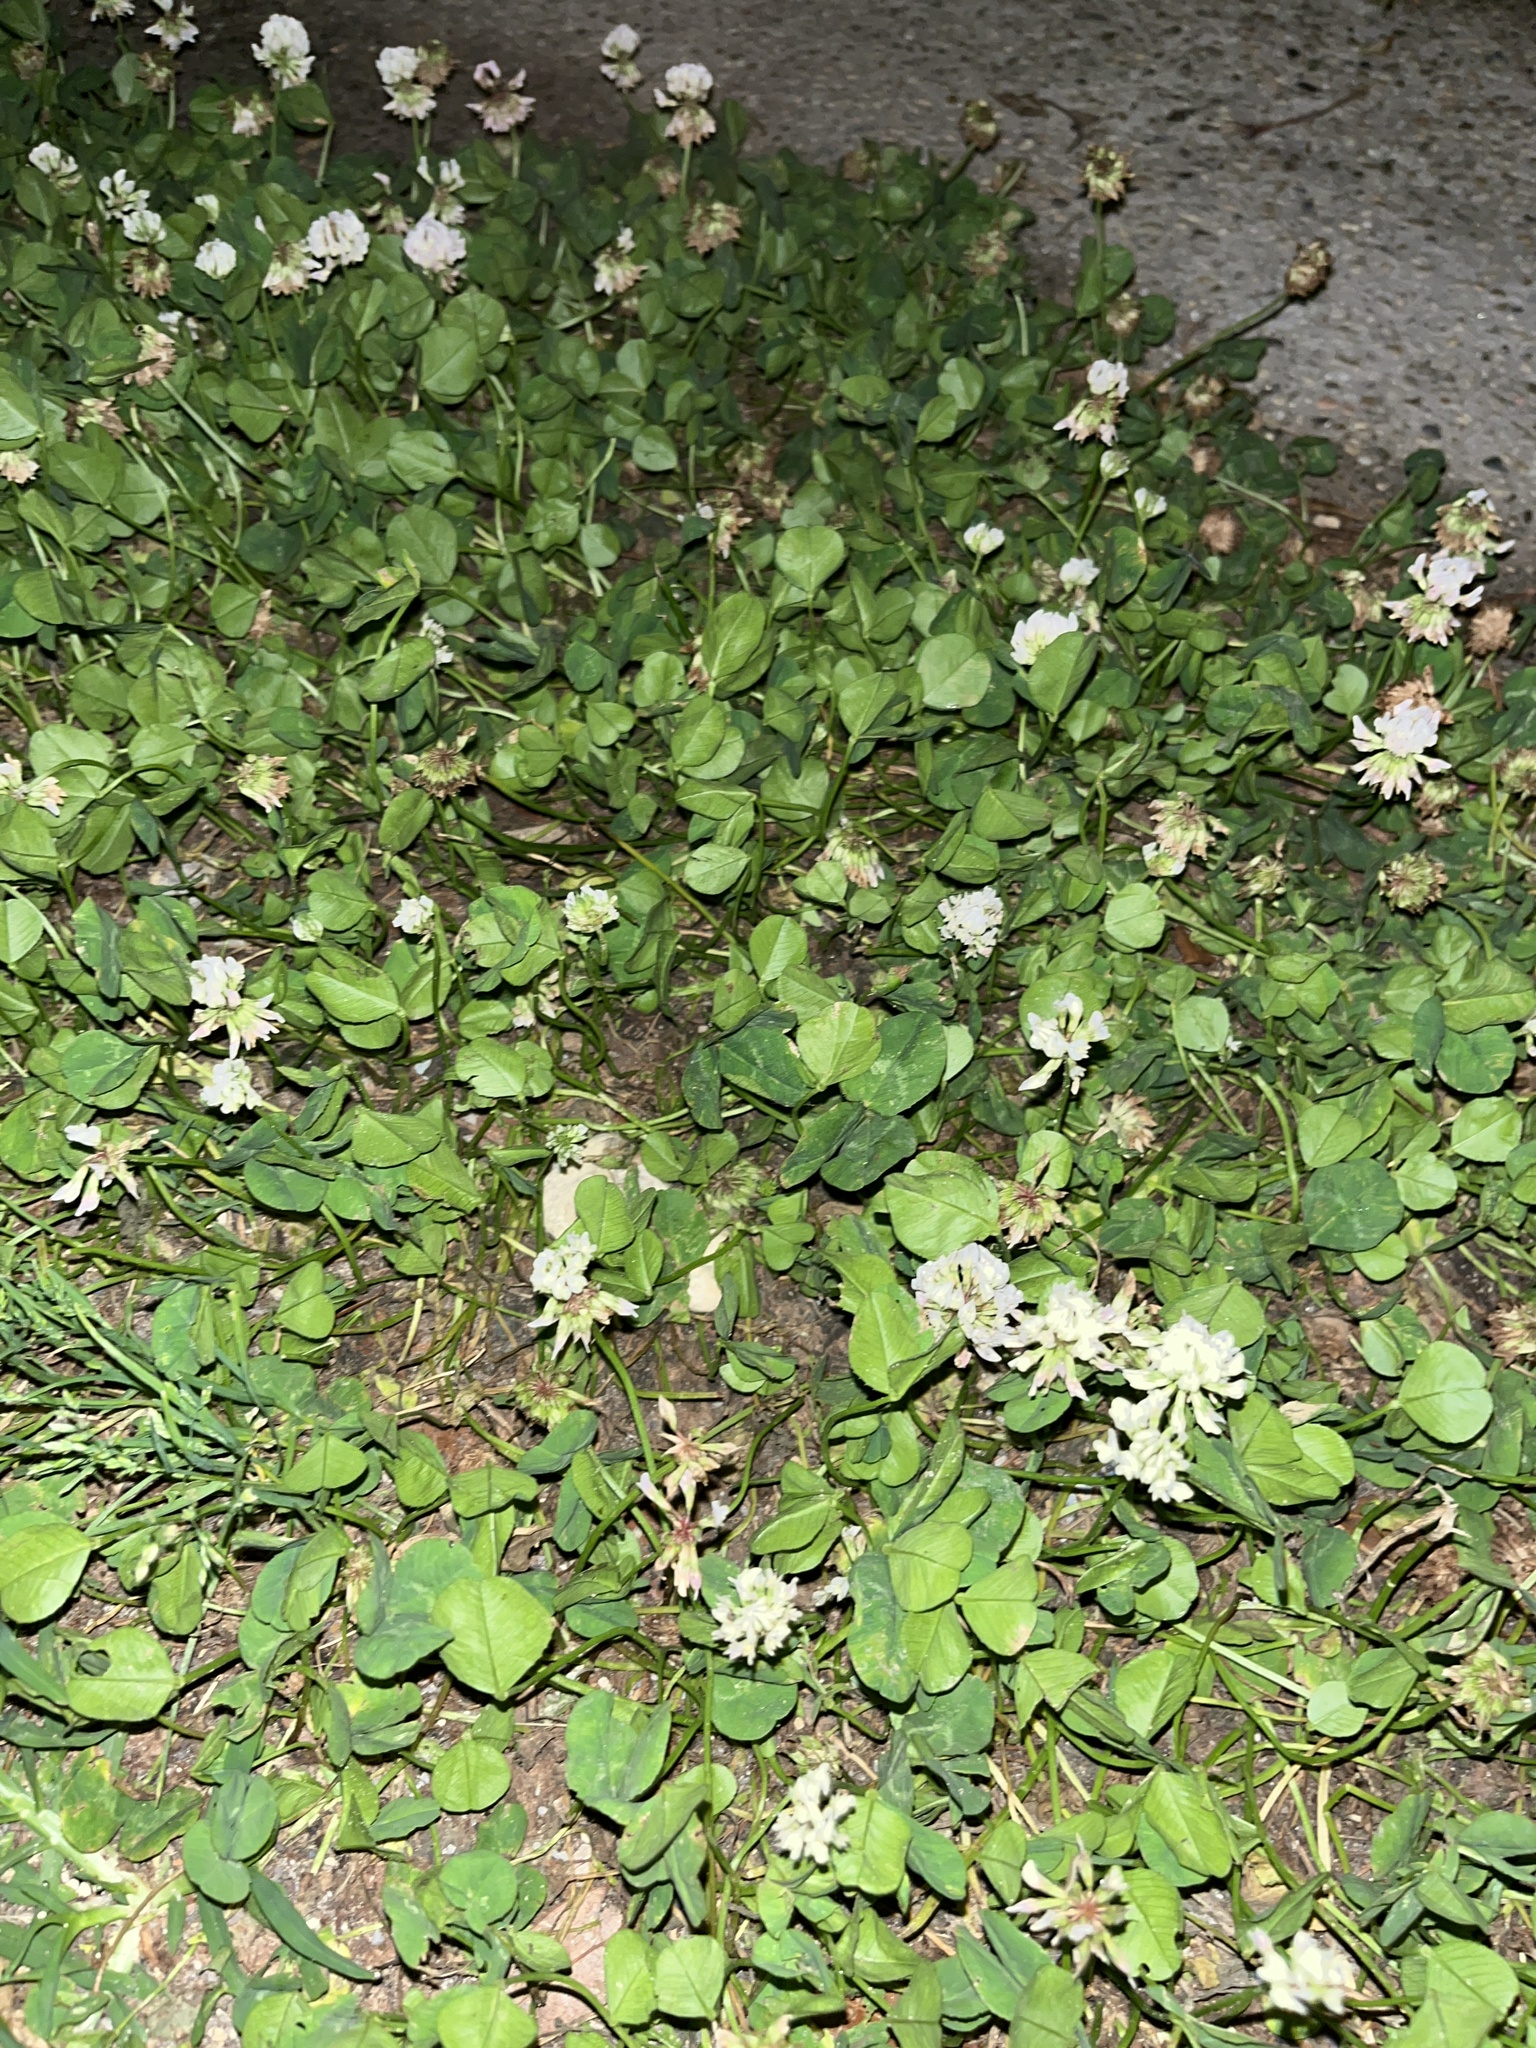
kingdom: Plantae
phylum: Tracheophyta
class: Magnoliopsida
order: Fabales
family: Fabaceae
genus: Trifolium
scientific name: Trifolium repens
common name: White clover
